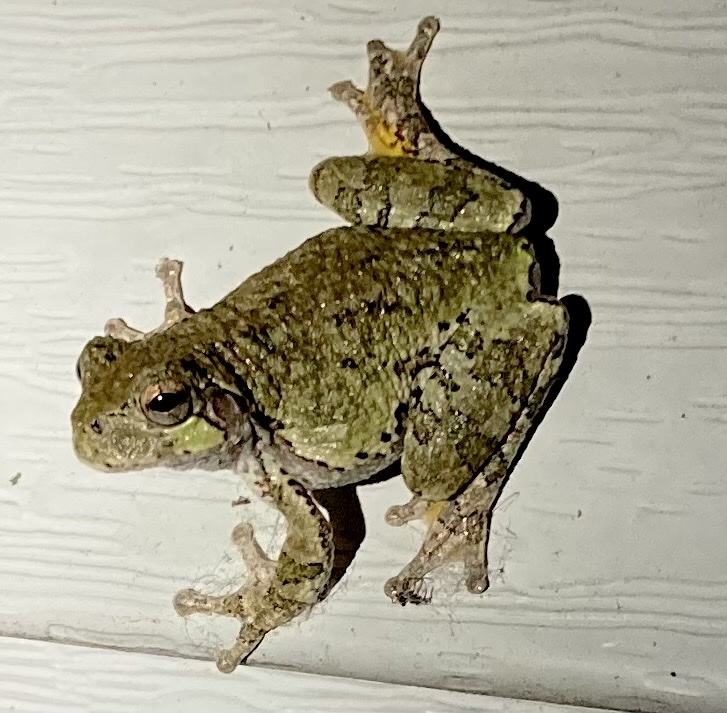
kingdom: Animalia
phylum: Chordata
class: Amphibia
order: Anura
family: Hylidae
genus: Hyla
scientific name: Hyla
